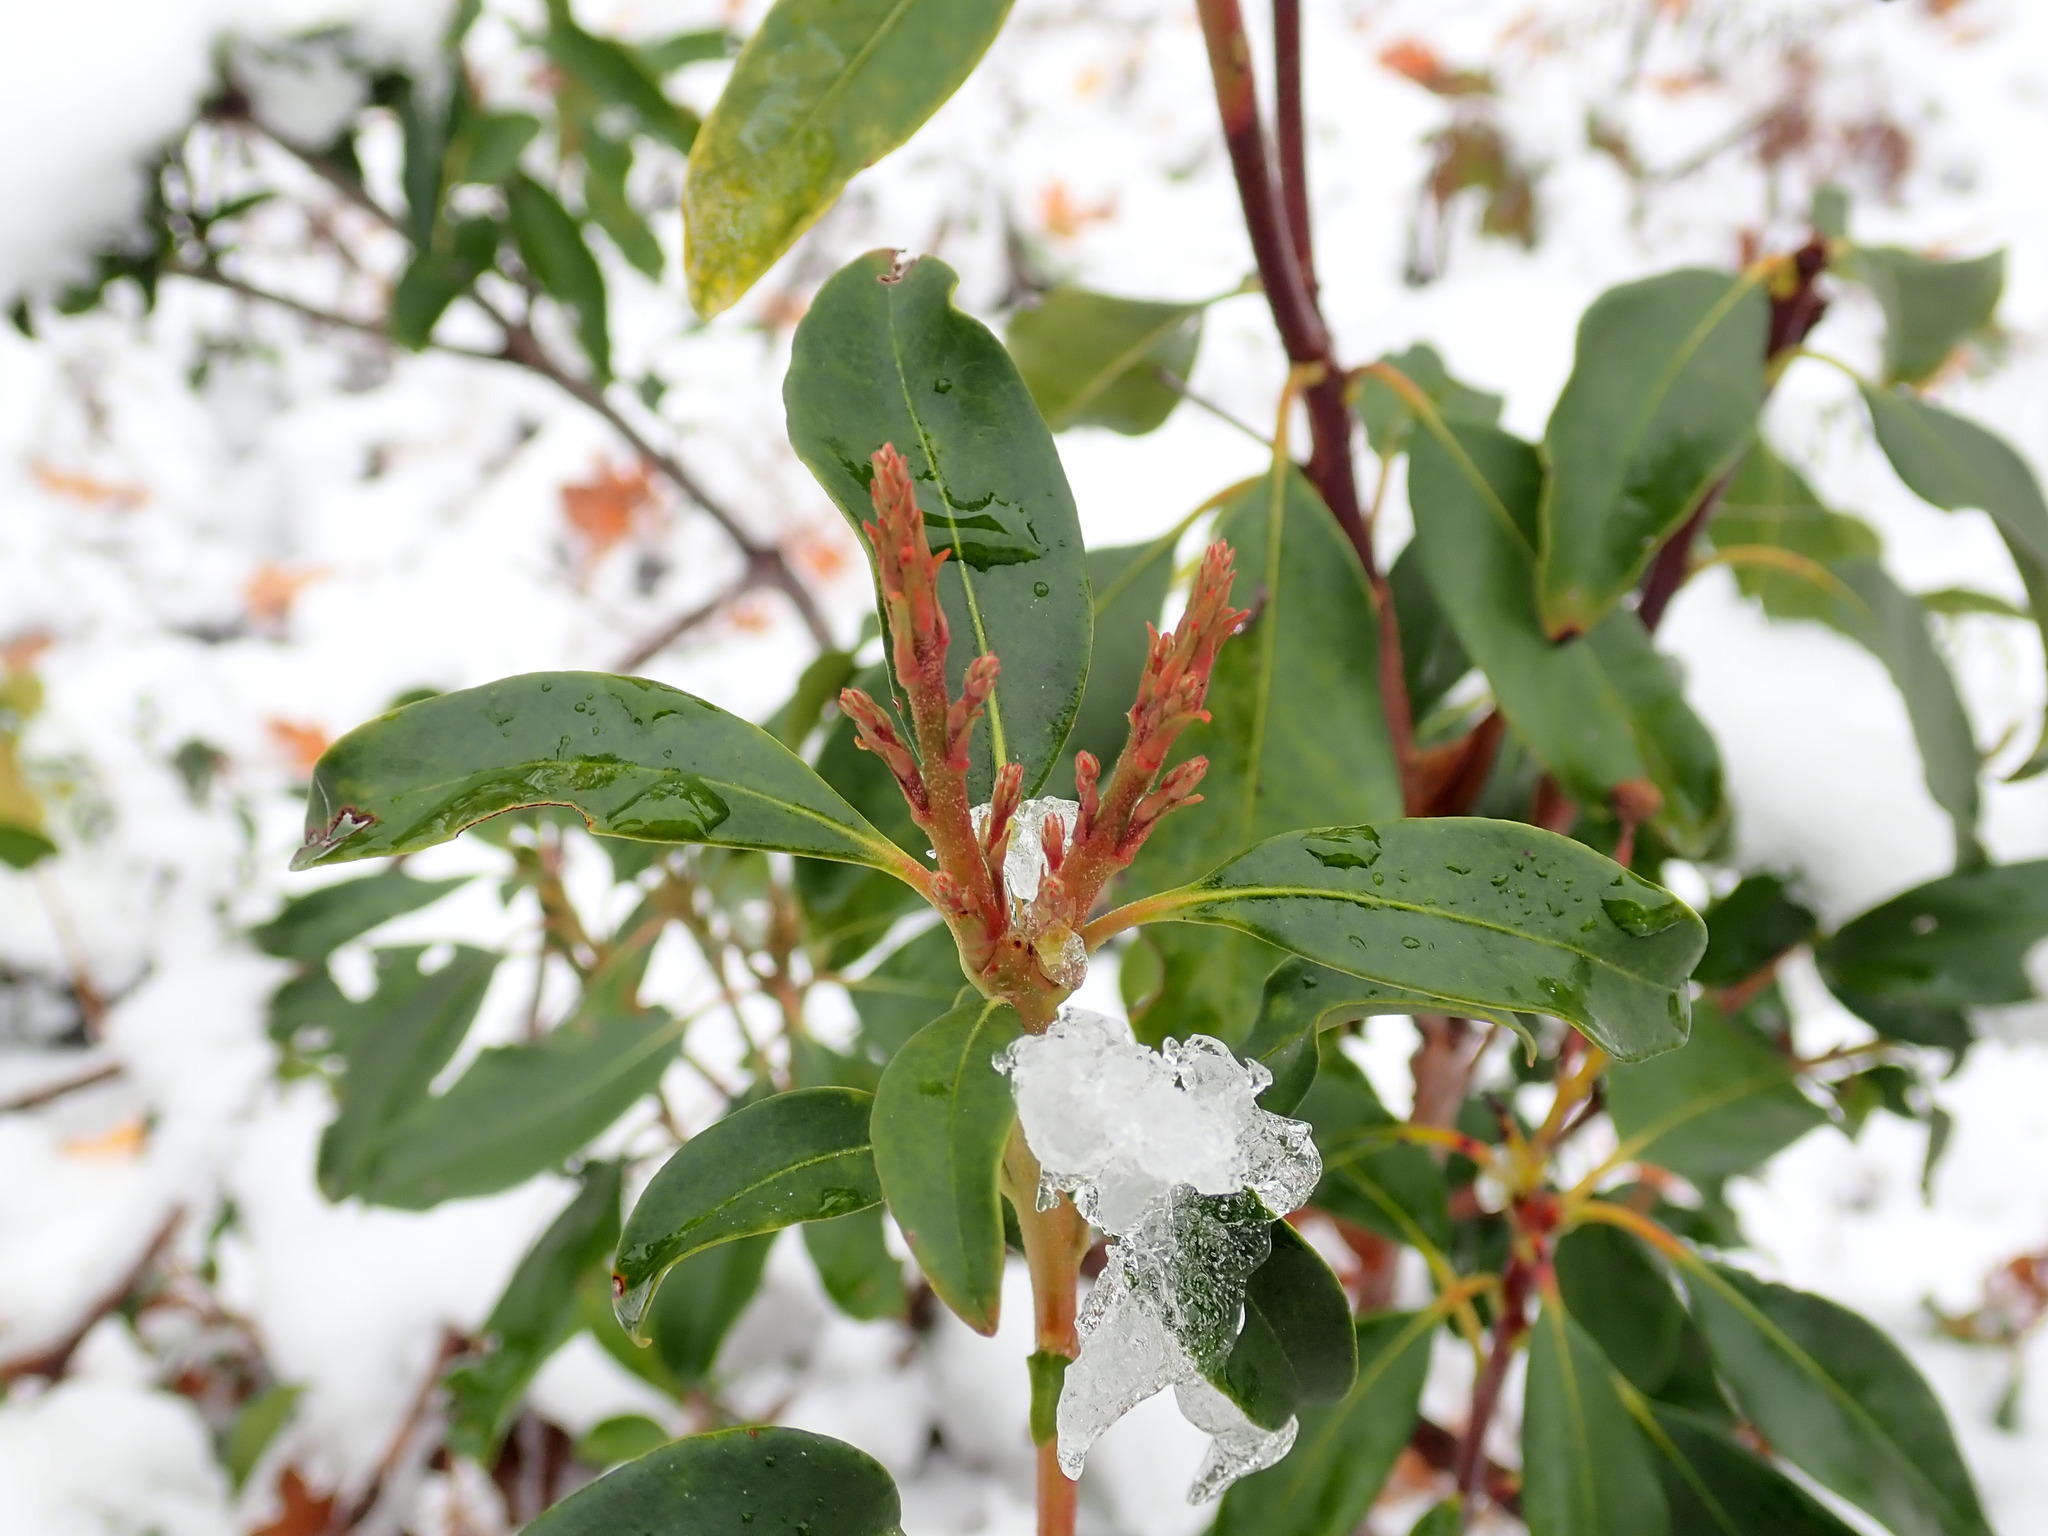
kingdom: Plantae
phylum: Tracheophyta
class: Magnoliopsida
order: Ericales
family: Ericaceae
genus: Kalmia
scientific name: Kalmia latifolia
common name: Mountain-laurel
